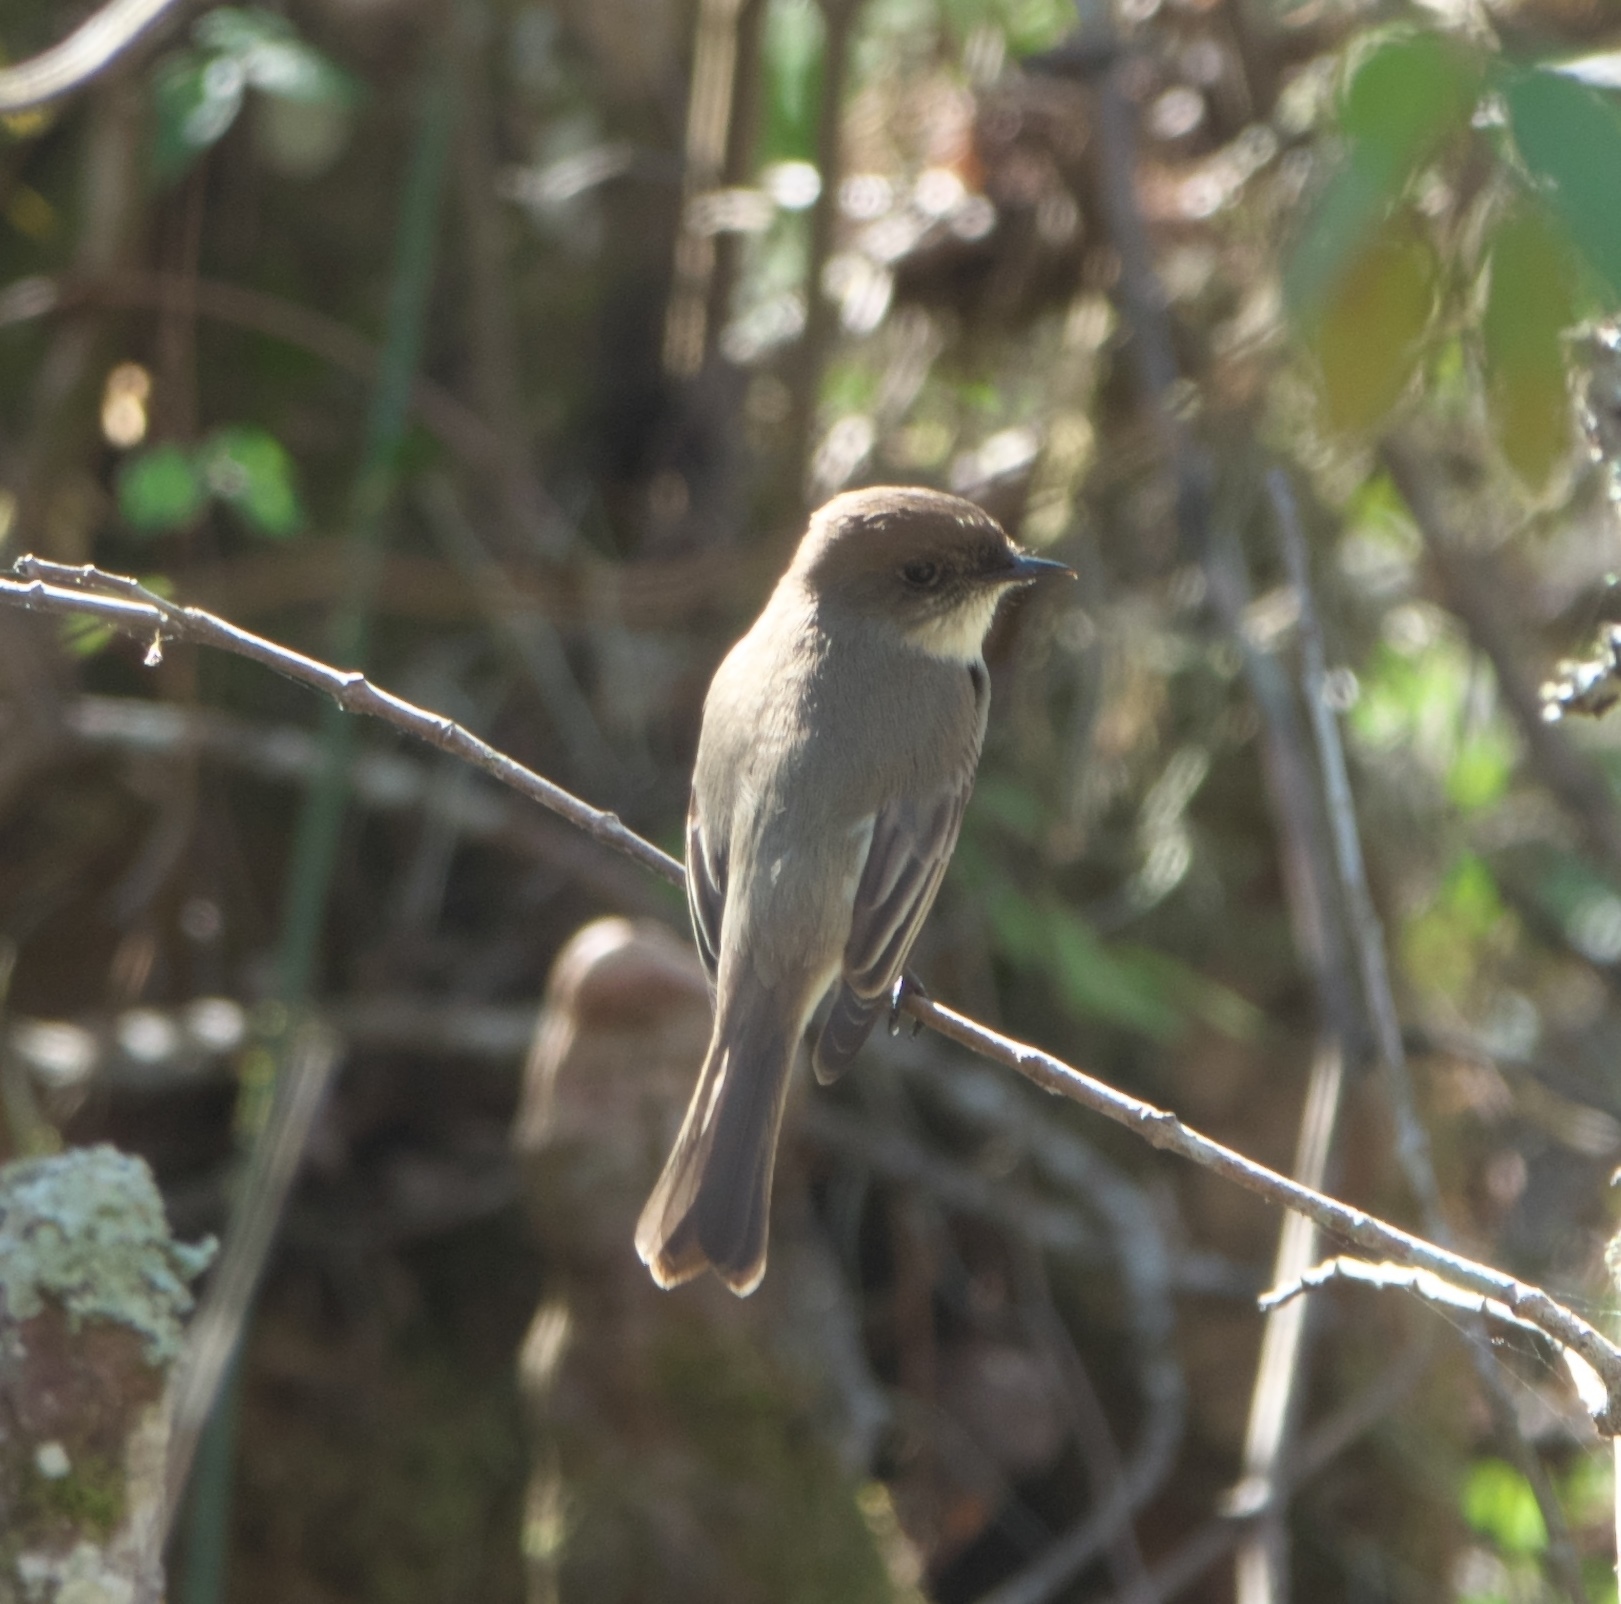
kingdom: Animalia
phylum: Chordata
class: Aves
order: Passeriformes
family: Tyrannidae
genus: Sayornis
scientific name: Sayornis phoebe
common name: Eastern phoebe
